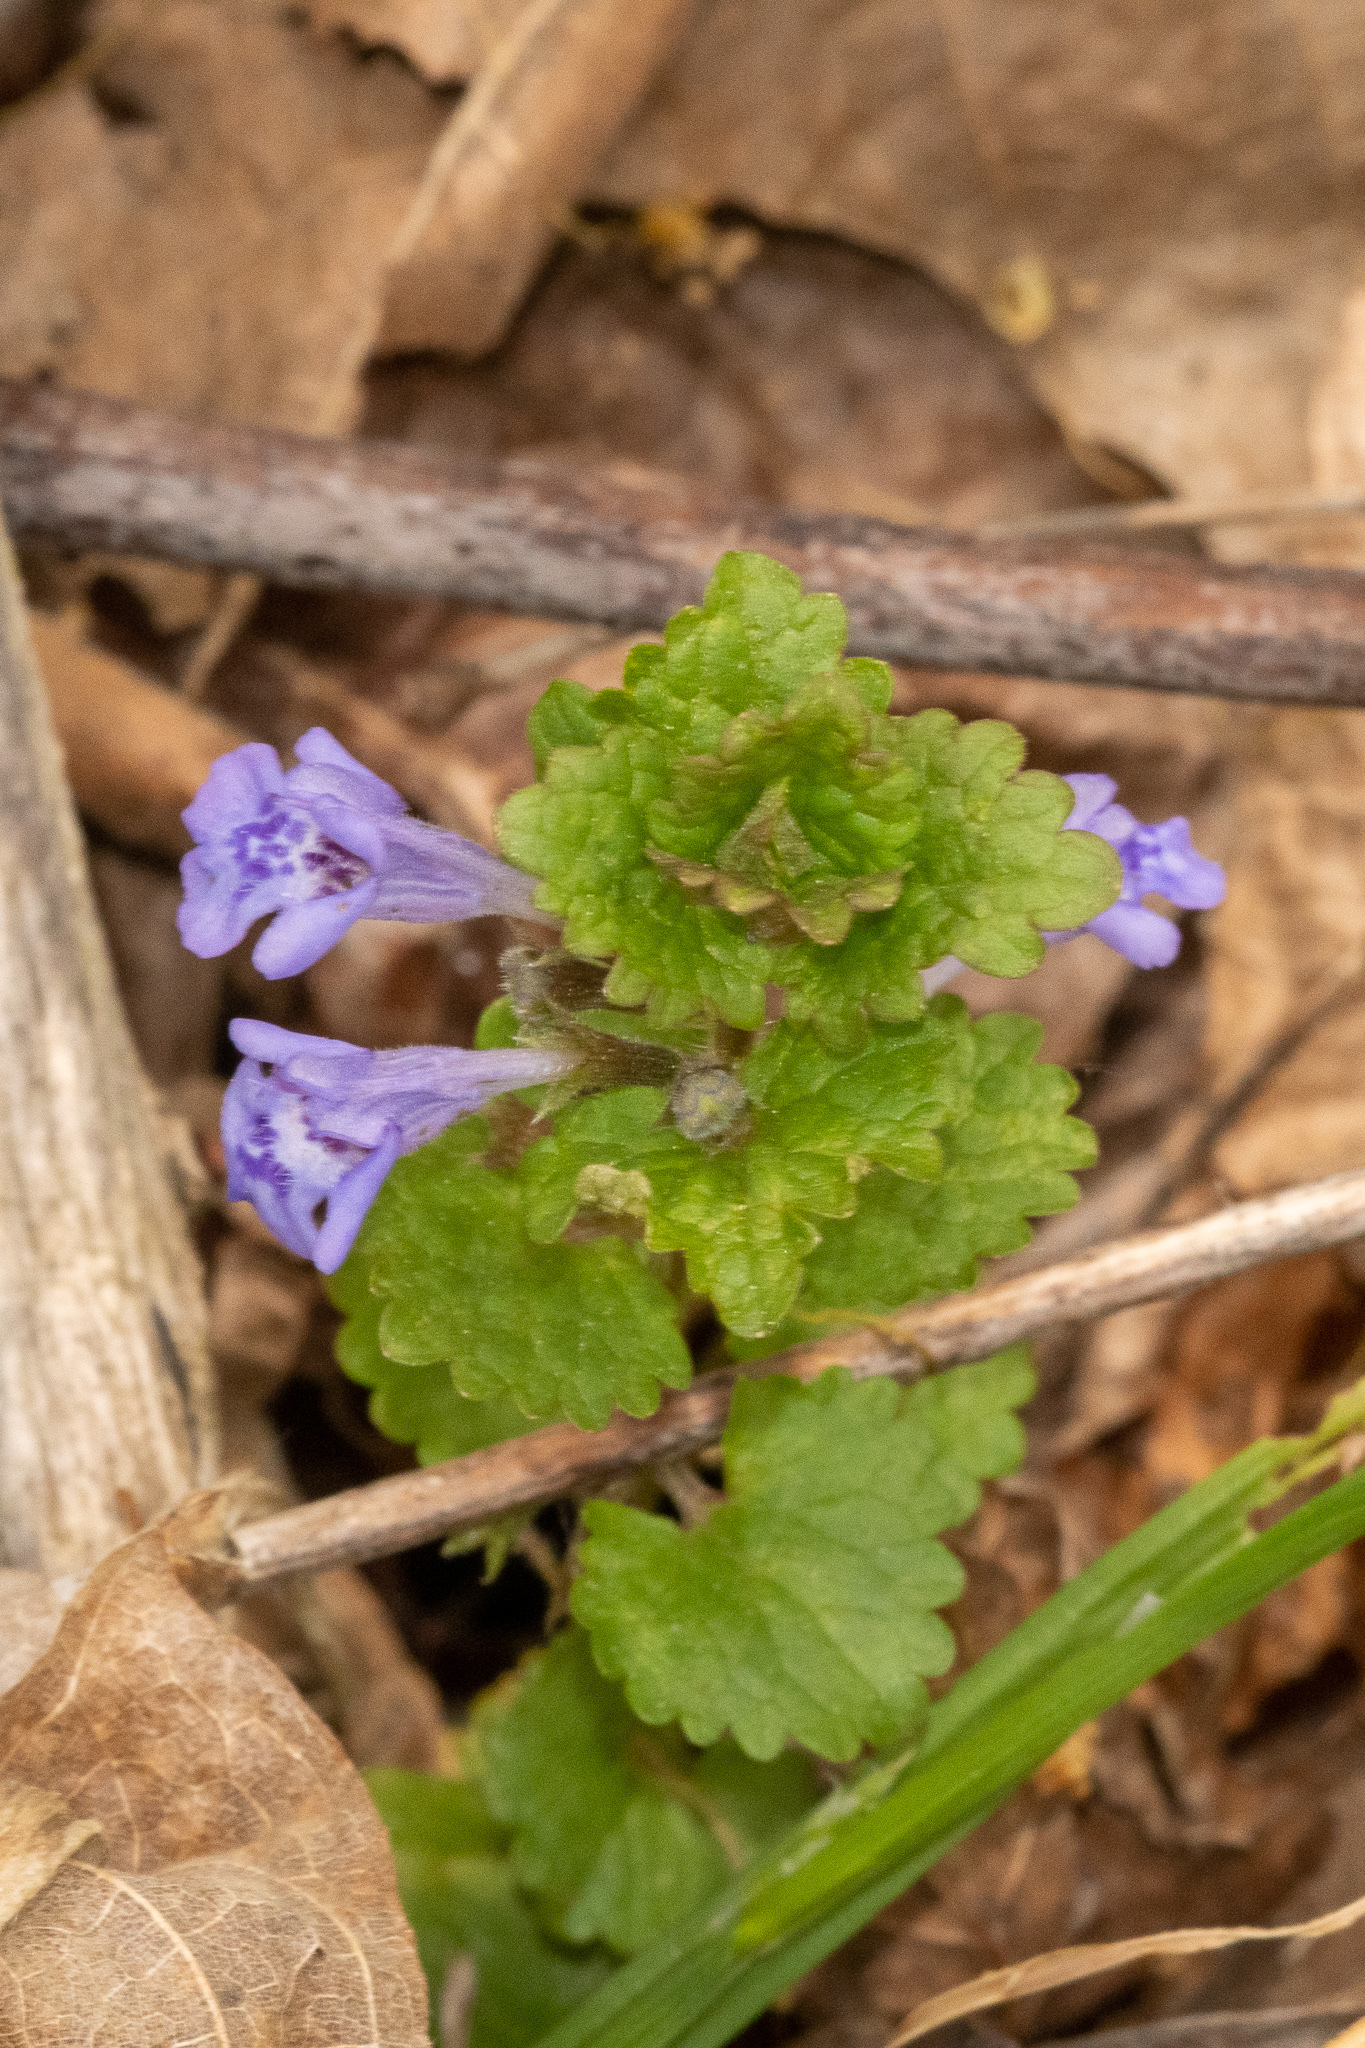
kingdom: Plantae
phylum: Tracheophyta
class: Magnoliopsida
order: Lamiales
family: Lamiaceae
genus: Glechoma
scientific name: Glechoma hederacea
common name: Ground ivy
